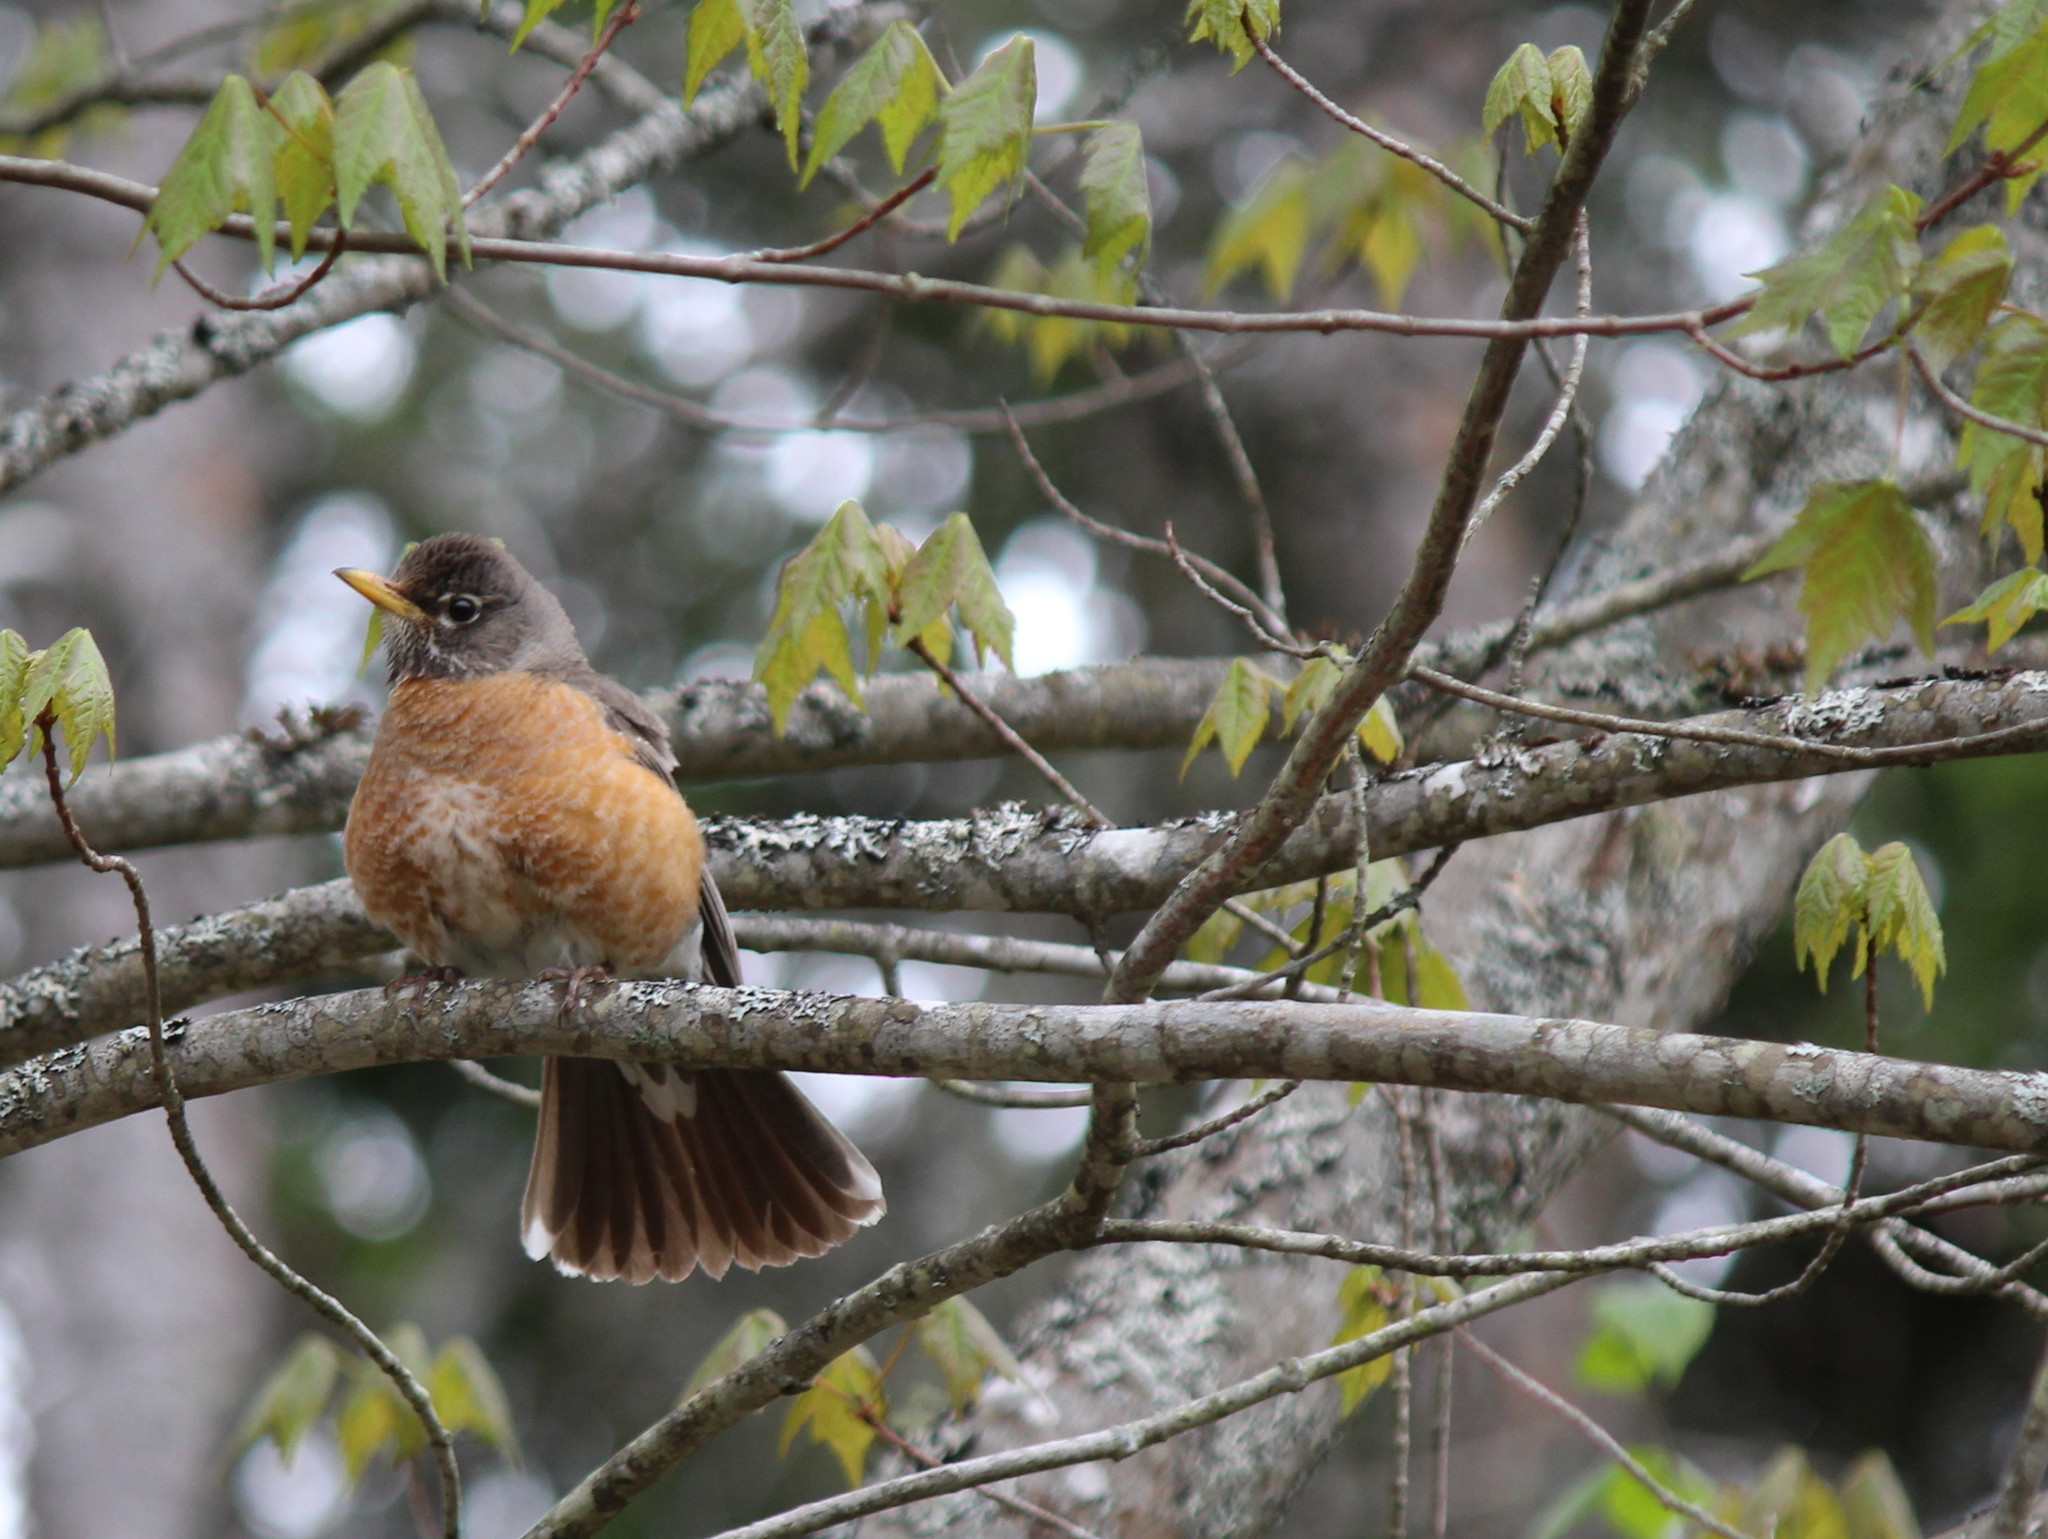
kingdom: Animalia
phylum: Chordata
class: Aves
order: Passeriformes
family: Turdidae
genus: Turdus
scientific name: Turdus migratorius
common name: American robin
